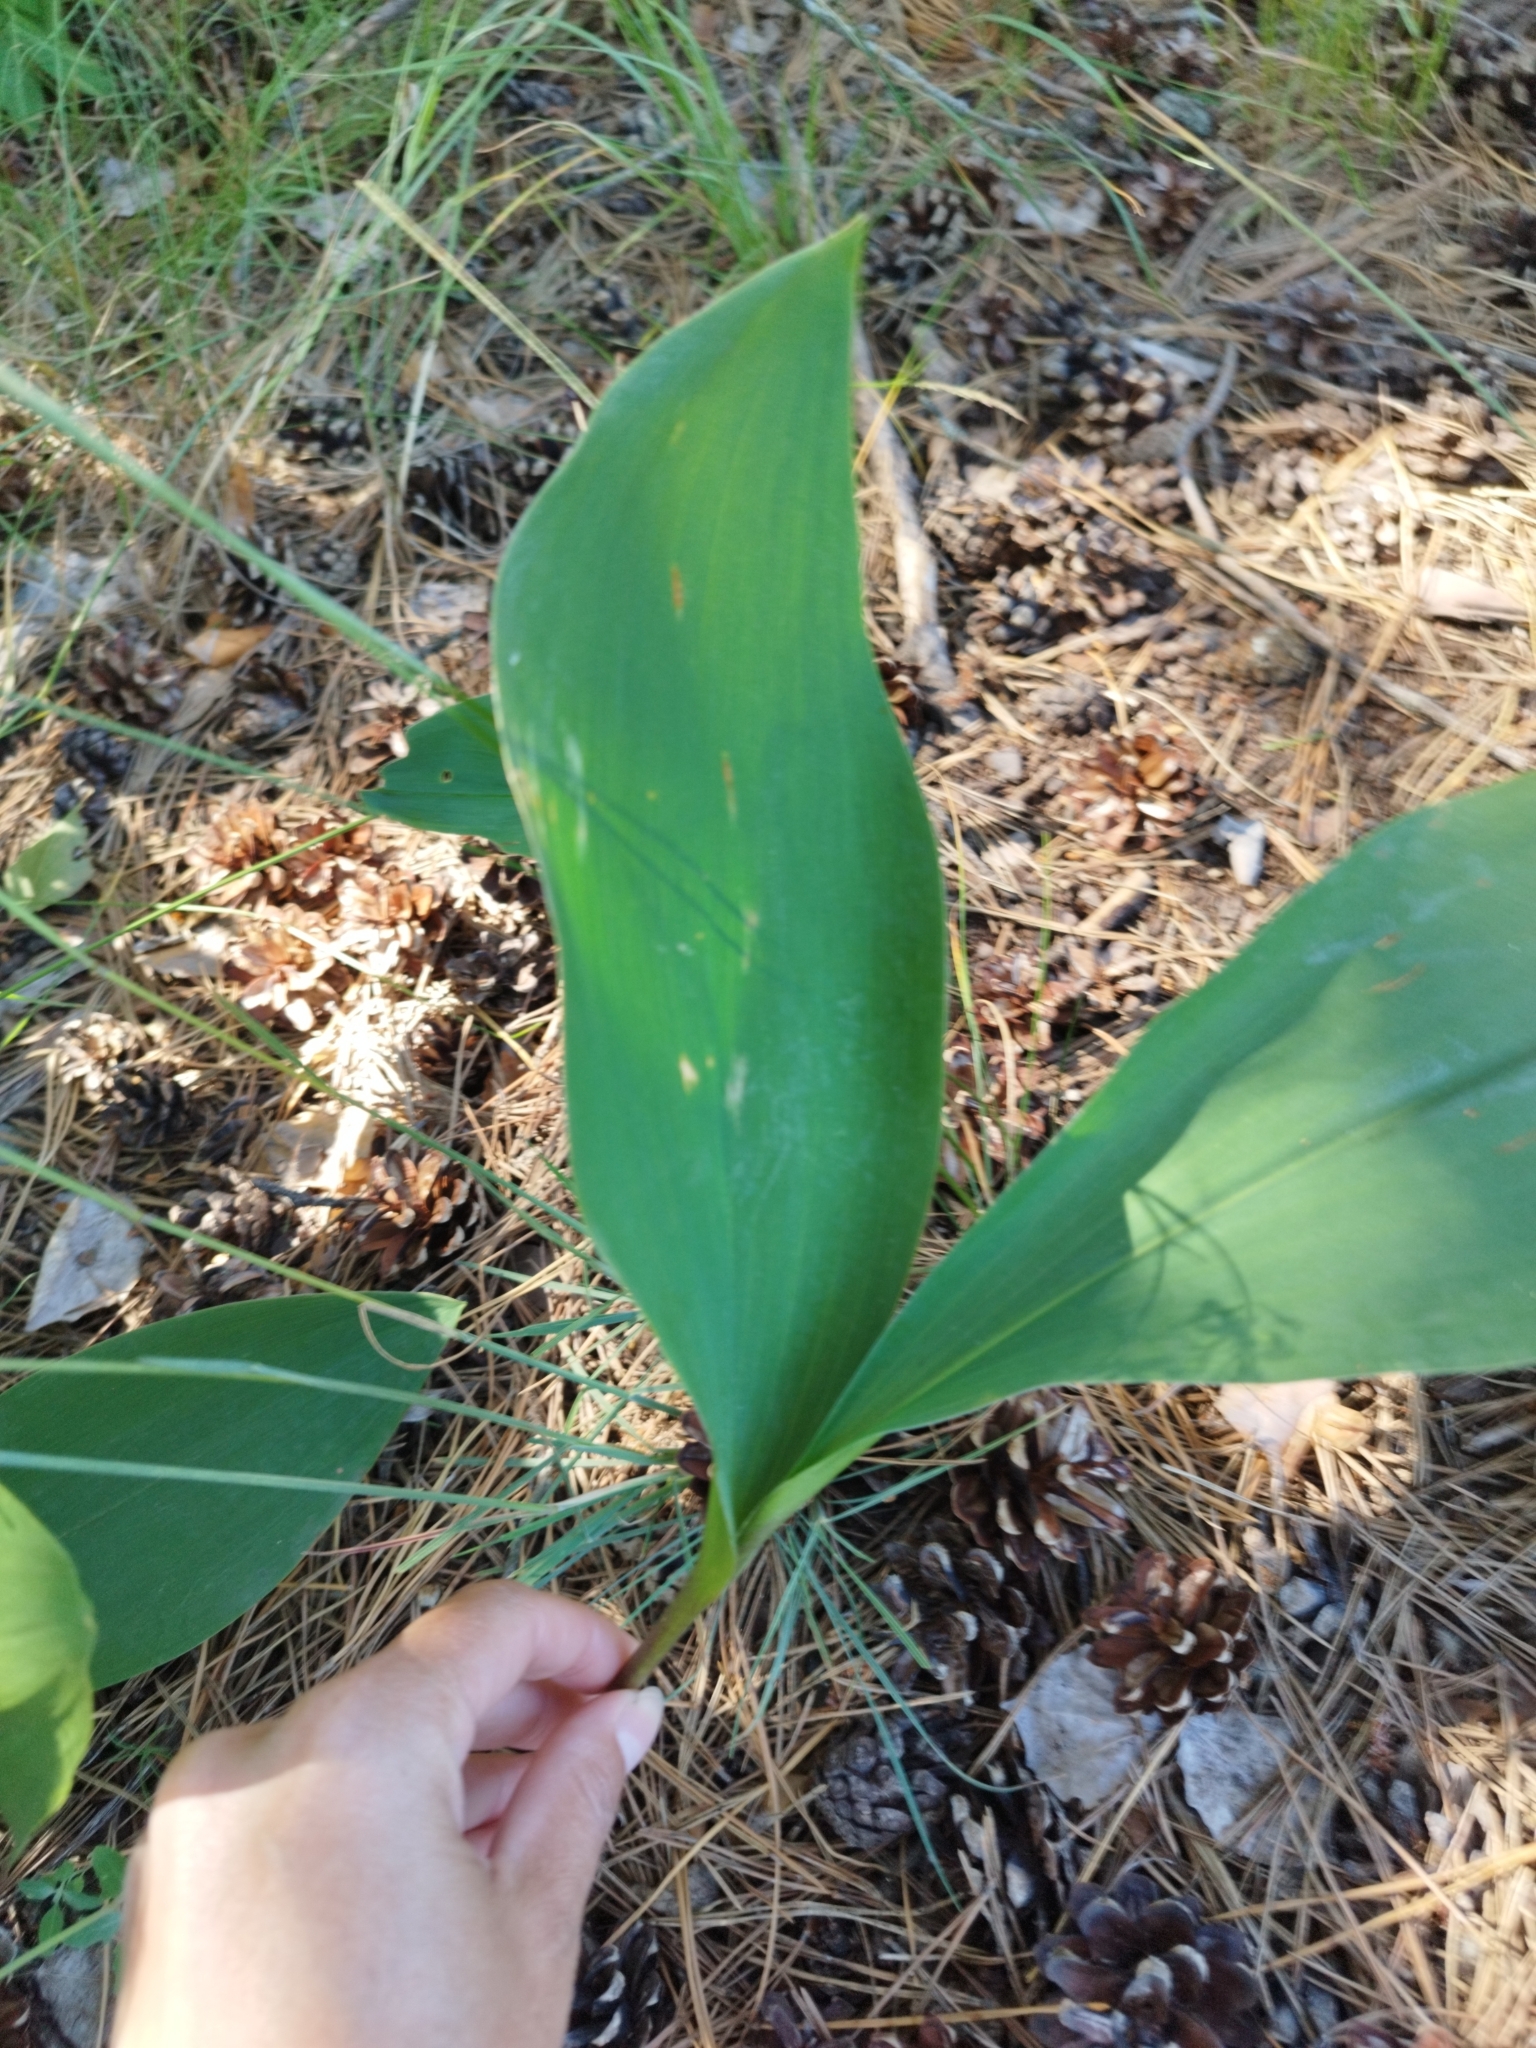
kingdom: Plantae
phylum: Tracheophyta
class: Liliopsida
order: Asparagales
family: Asparagaceae
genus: Convallaria
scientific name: Convallaria majalis
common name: Lily-of-the-valley
